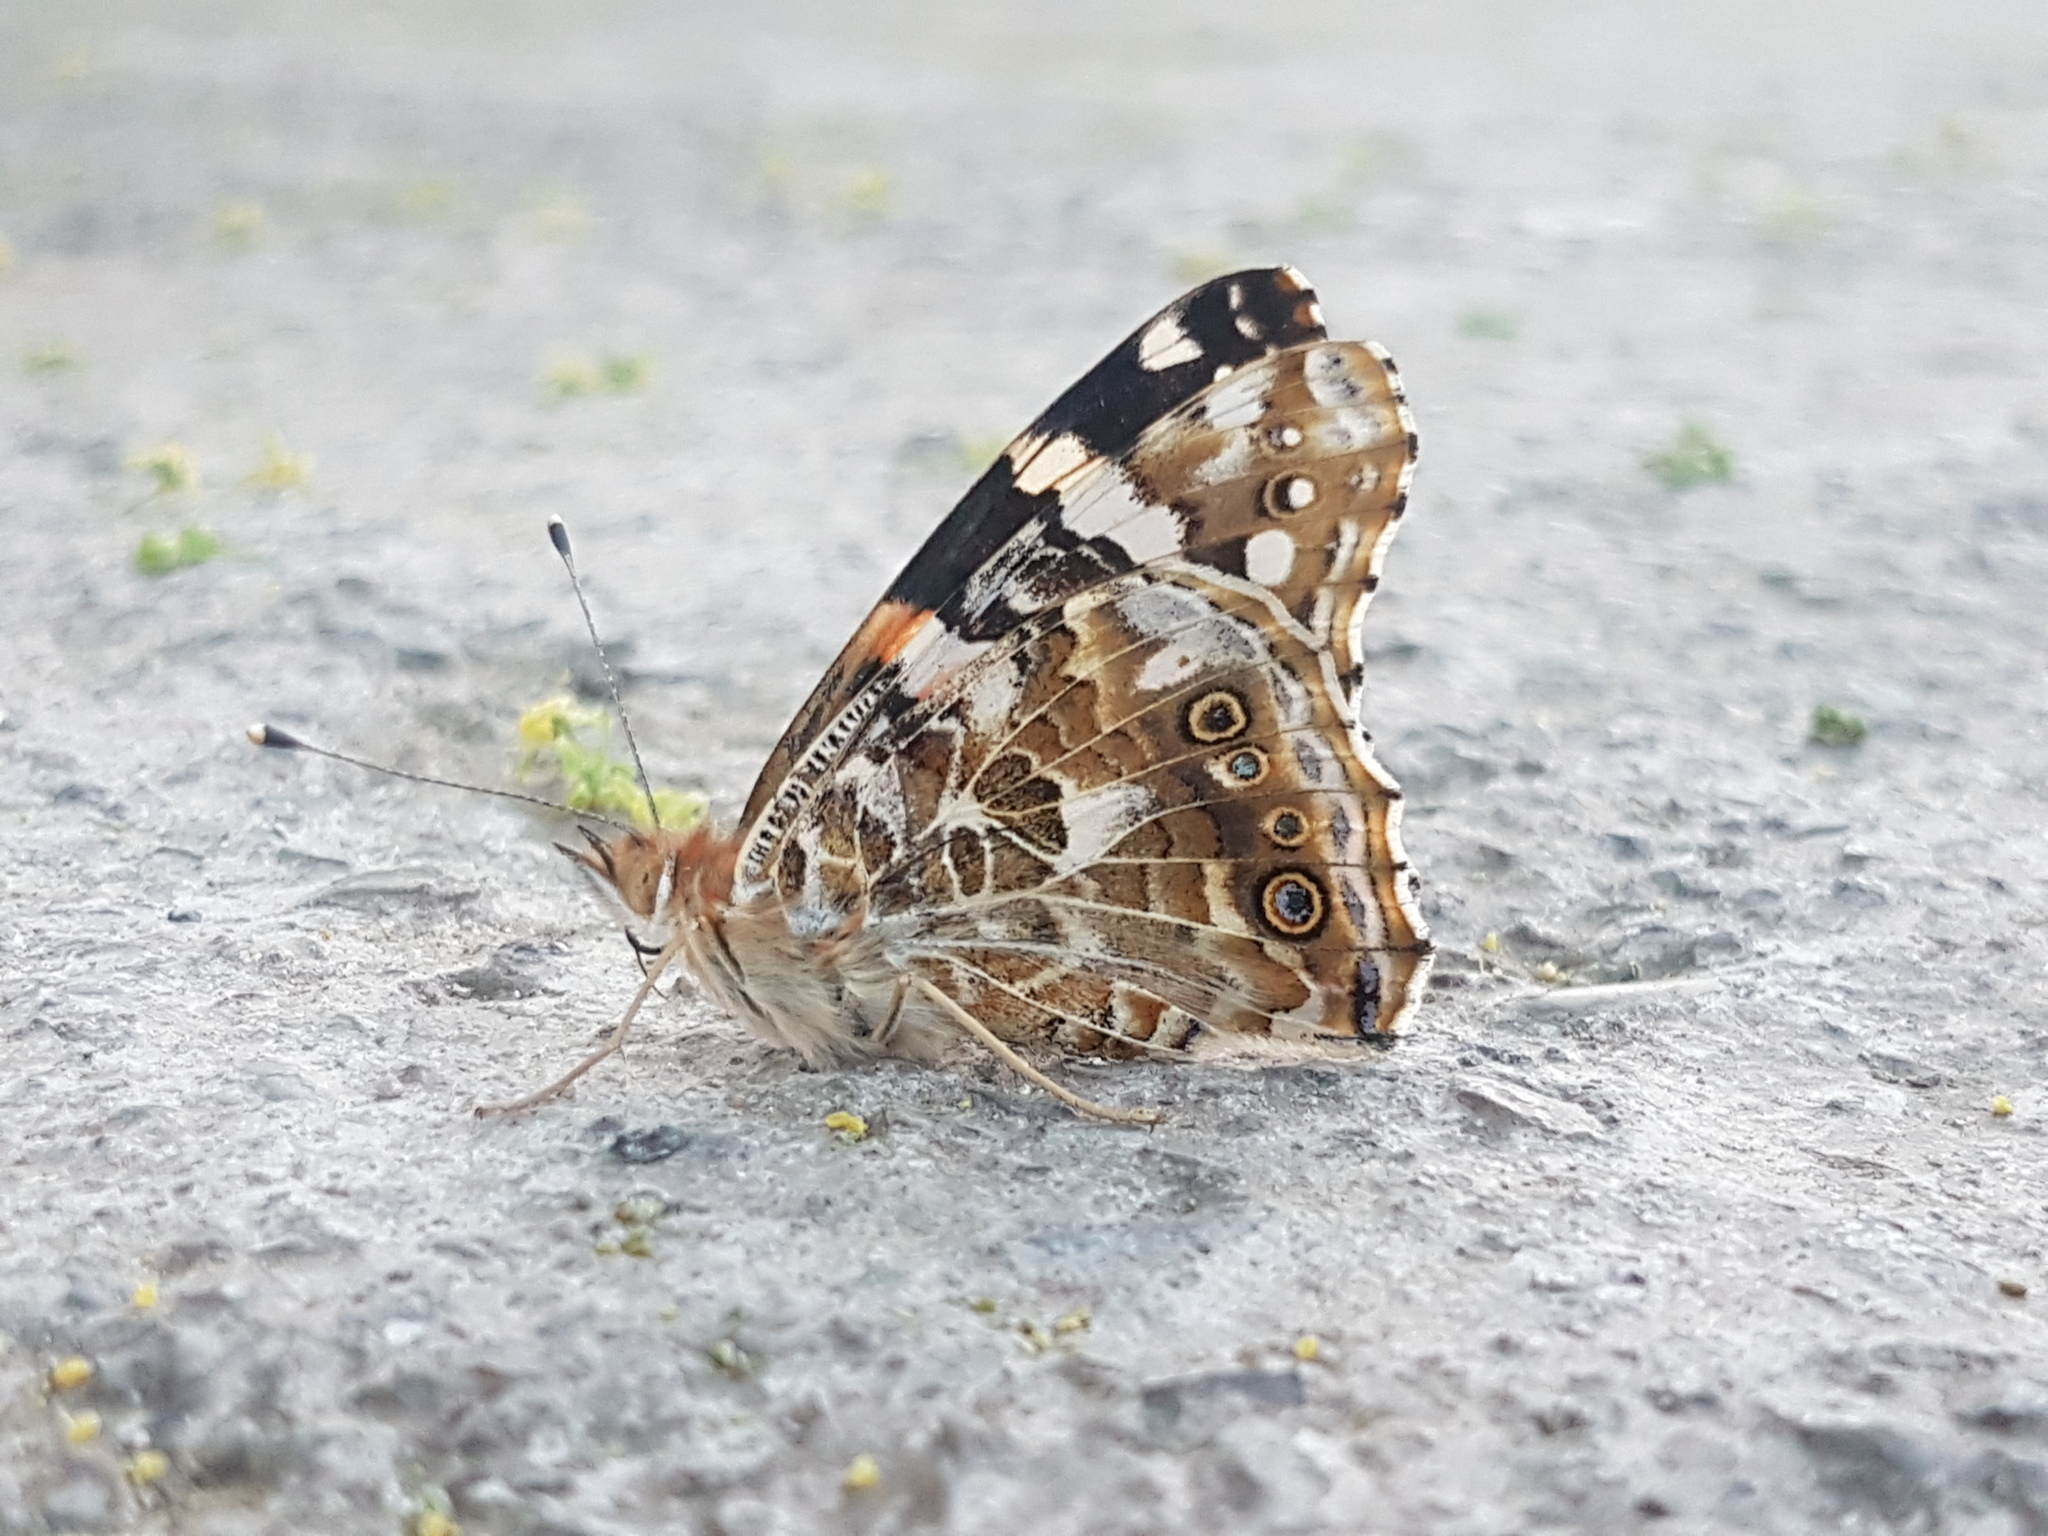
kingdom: Animalia
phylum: Arthropoda
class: Insecta
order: Lepidoptera
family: Nymphalidae
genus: Vanessa
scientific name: Vanessa cardui
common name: Painted lady
